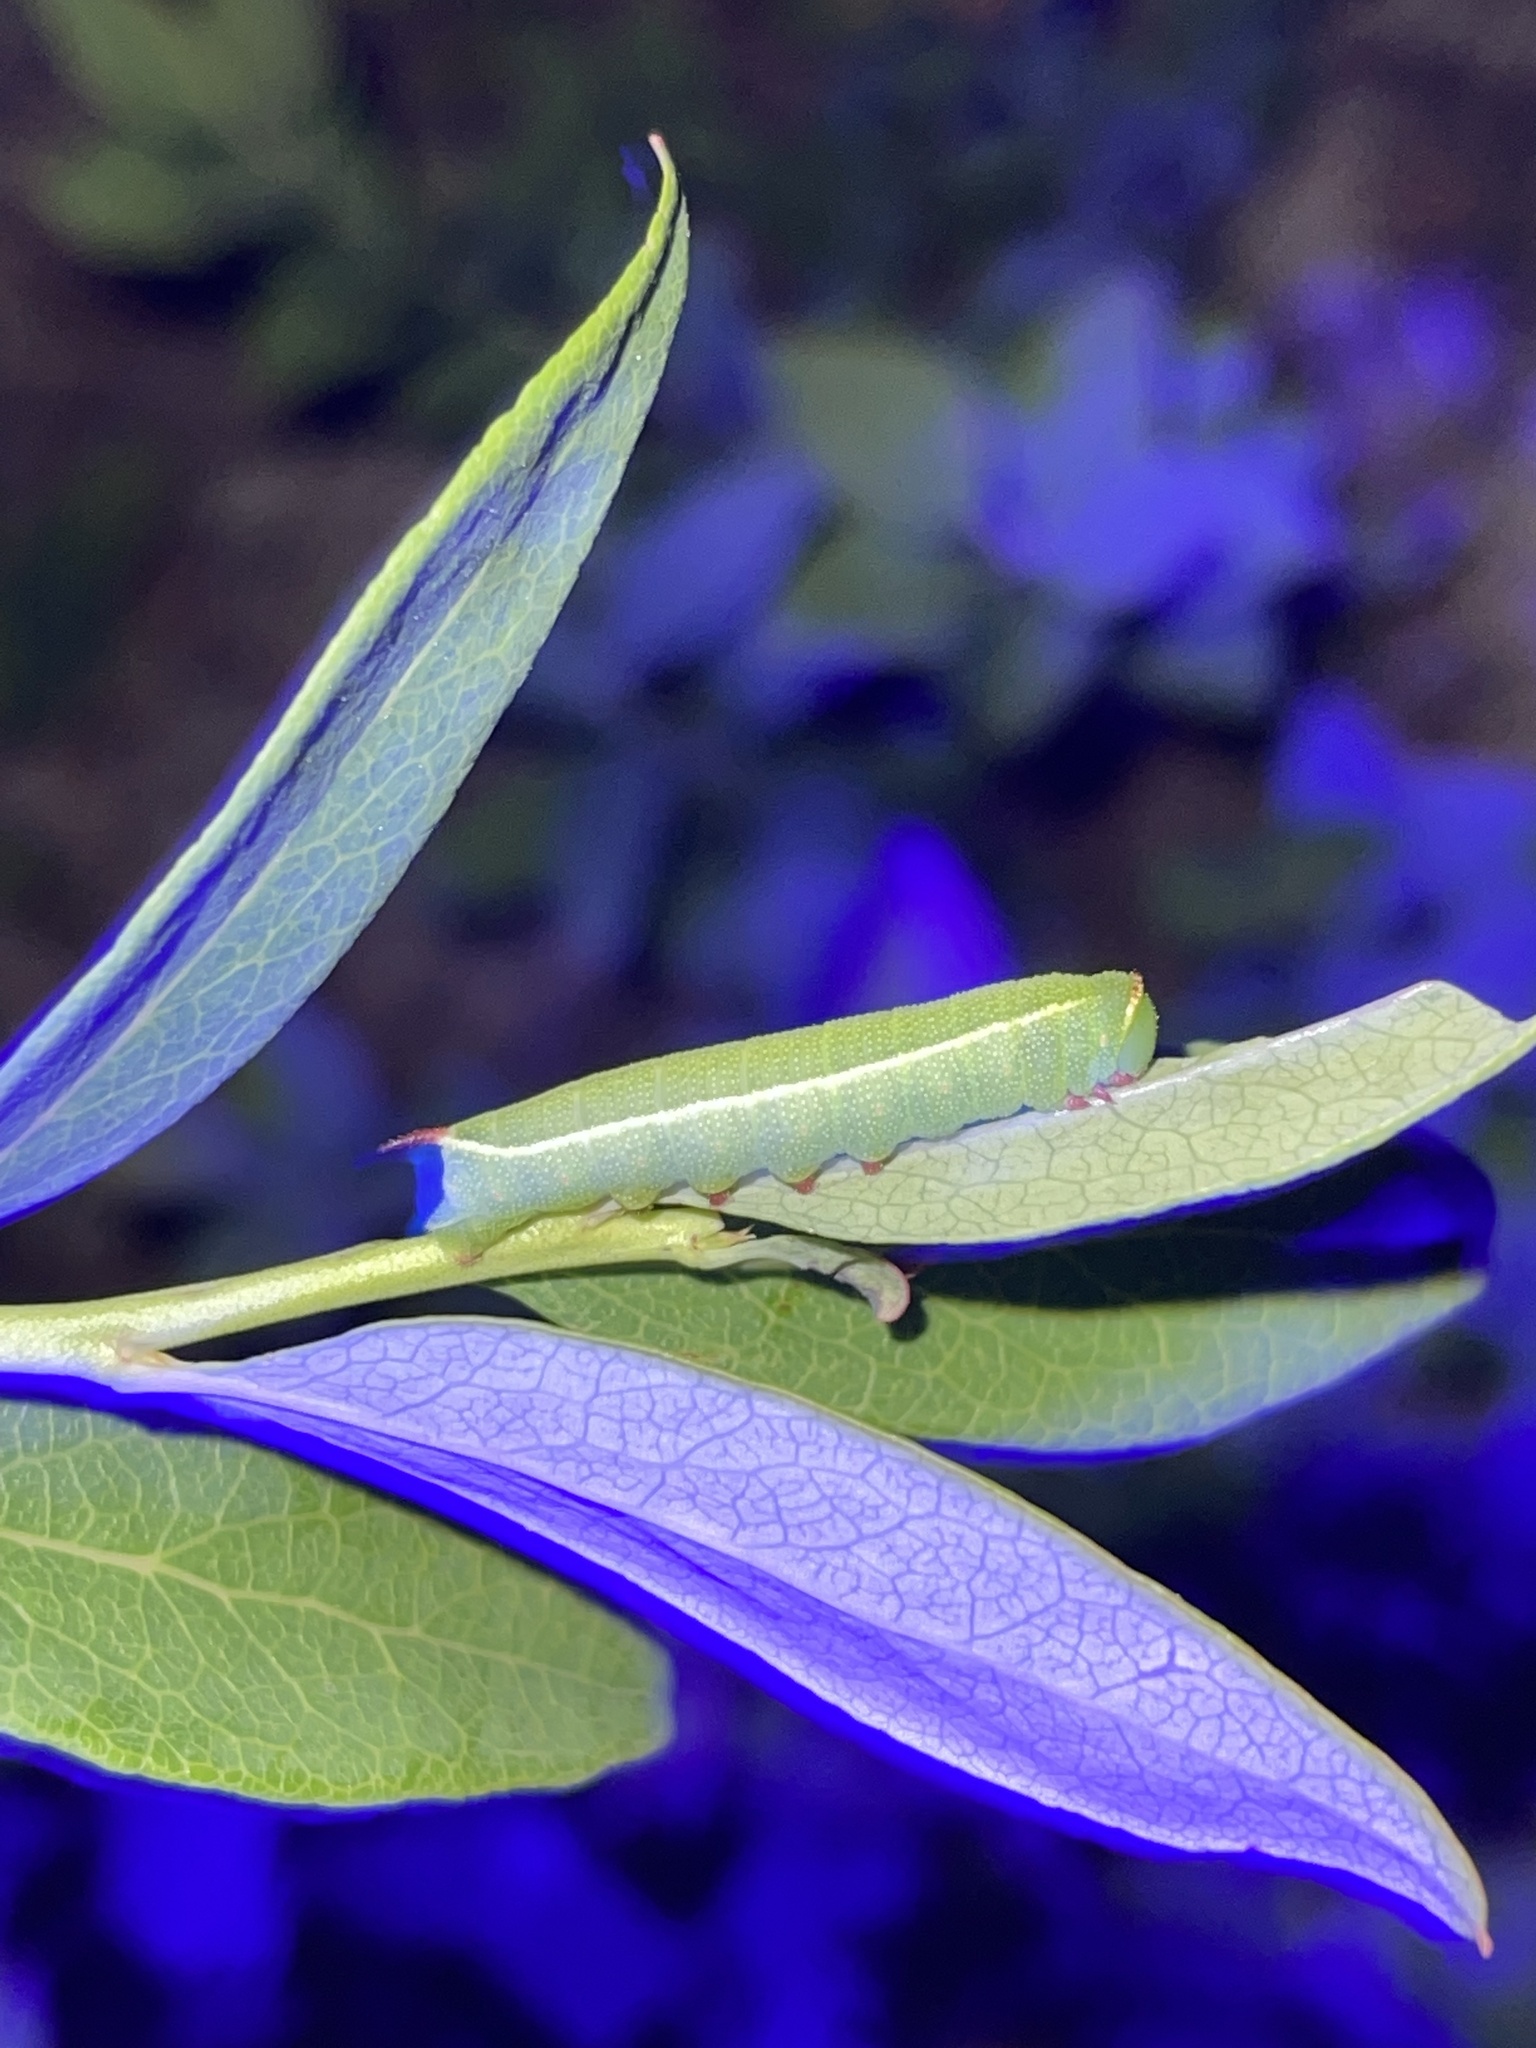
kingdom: Animalia
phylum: Arthropoda
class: Insecta
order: Lepidoptera
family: Sphingidae
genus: Hemaris
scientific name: Hemaris gracilis
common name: Graceful clearwing
